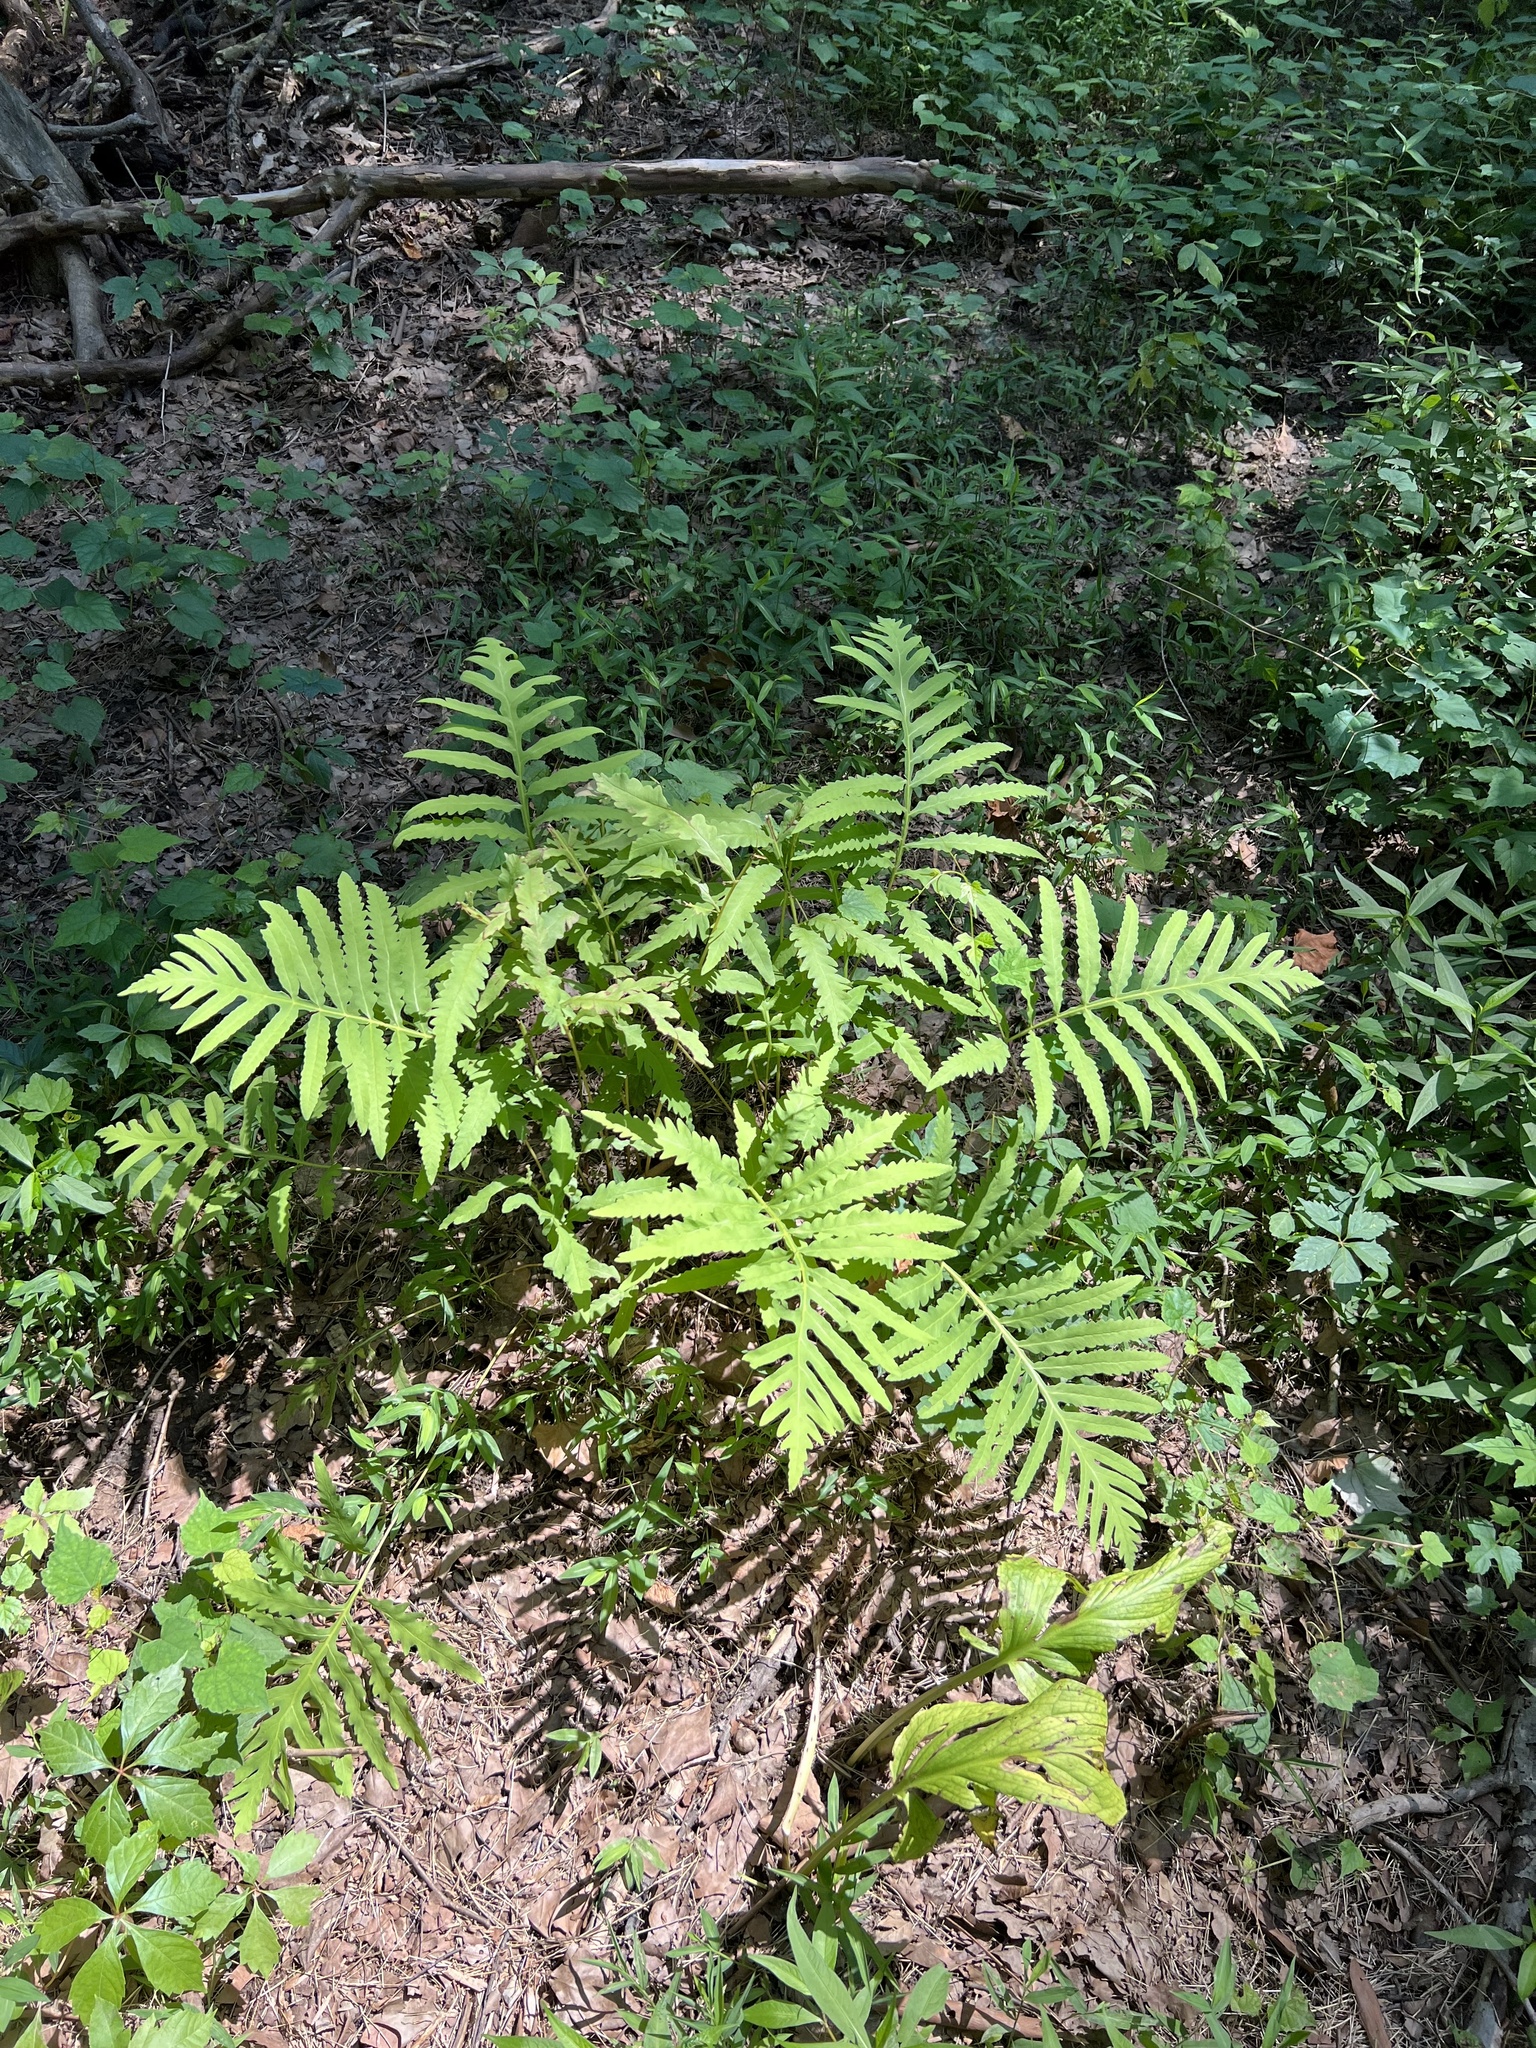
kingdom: Plantae
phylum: Tracheophyta
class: Polypodiopsida
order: Polypodiales
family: Onocleaceae
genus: Onoclea
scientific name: Onoclea sensibilis
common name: Sensitive fern
